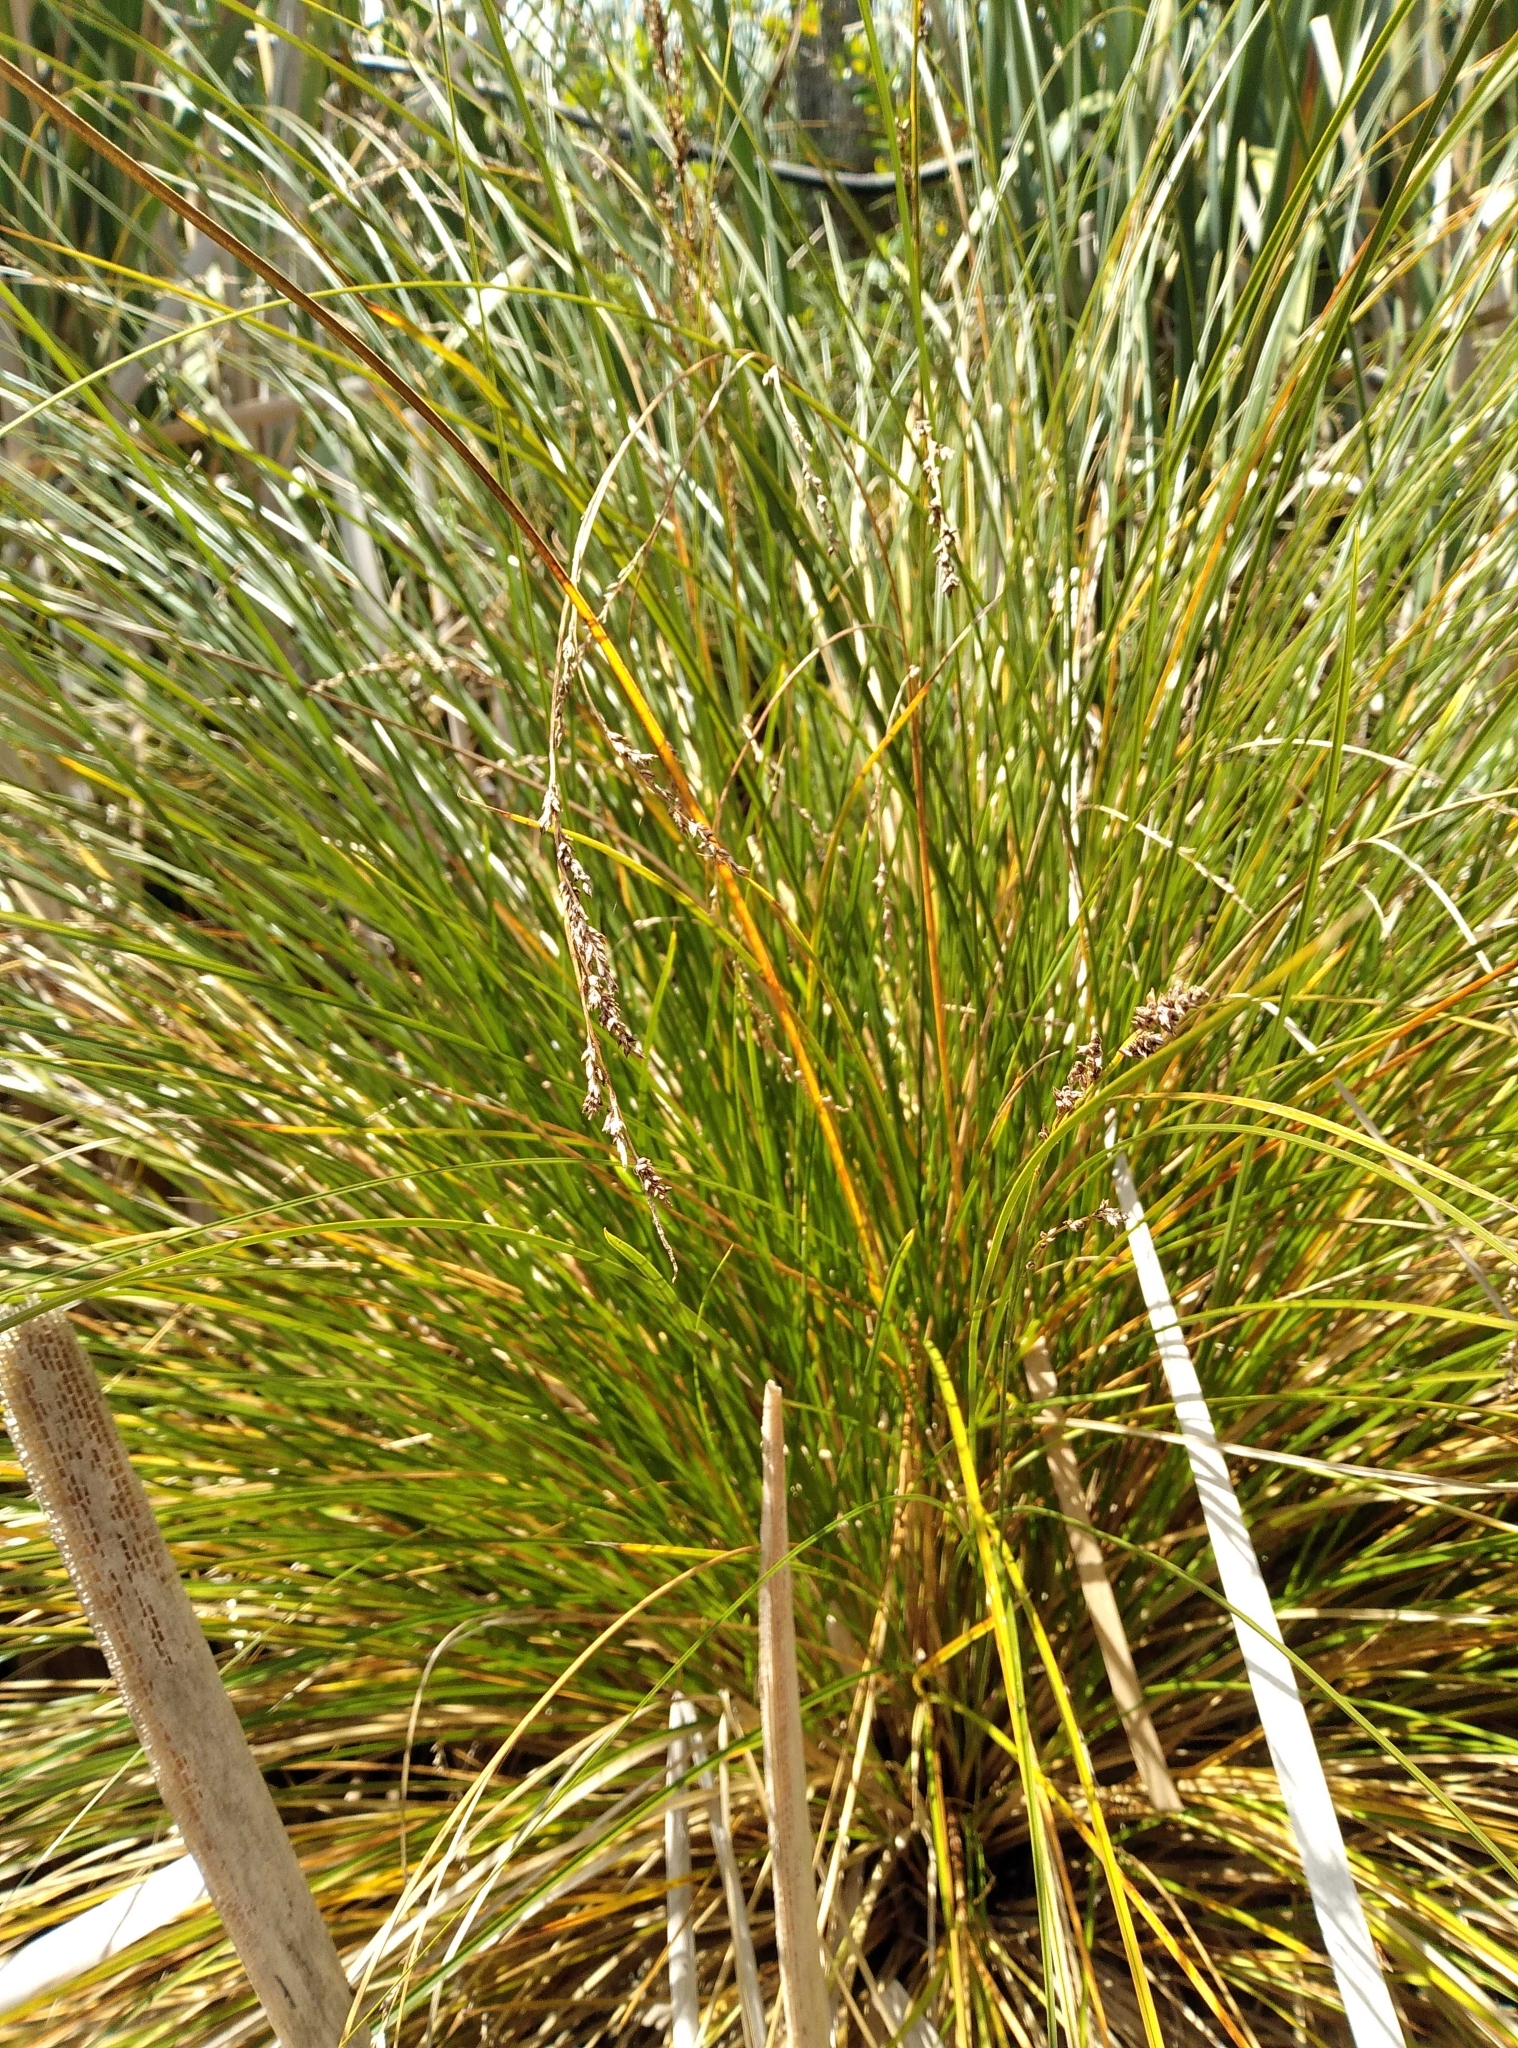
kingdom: Plantae
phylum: Tracheophyta
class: Liliopsida
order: Poales
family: Cyperaceae
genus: Carex
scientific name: Carex secta
